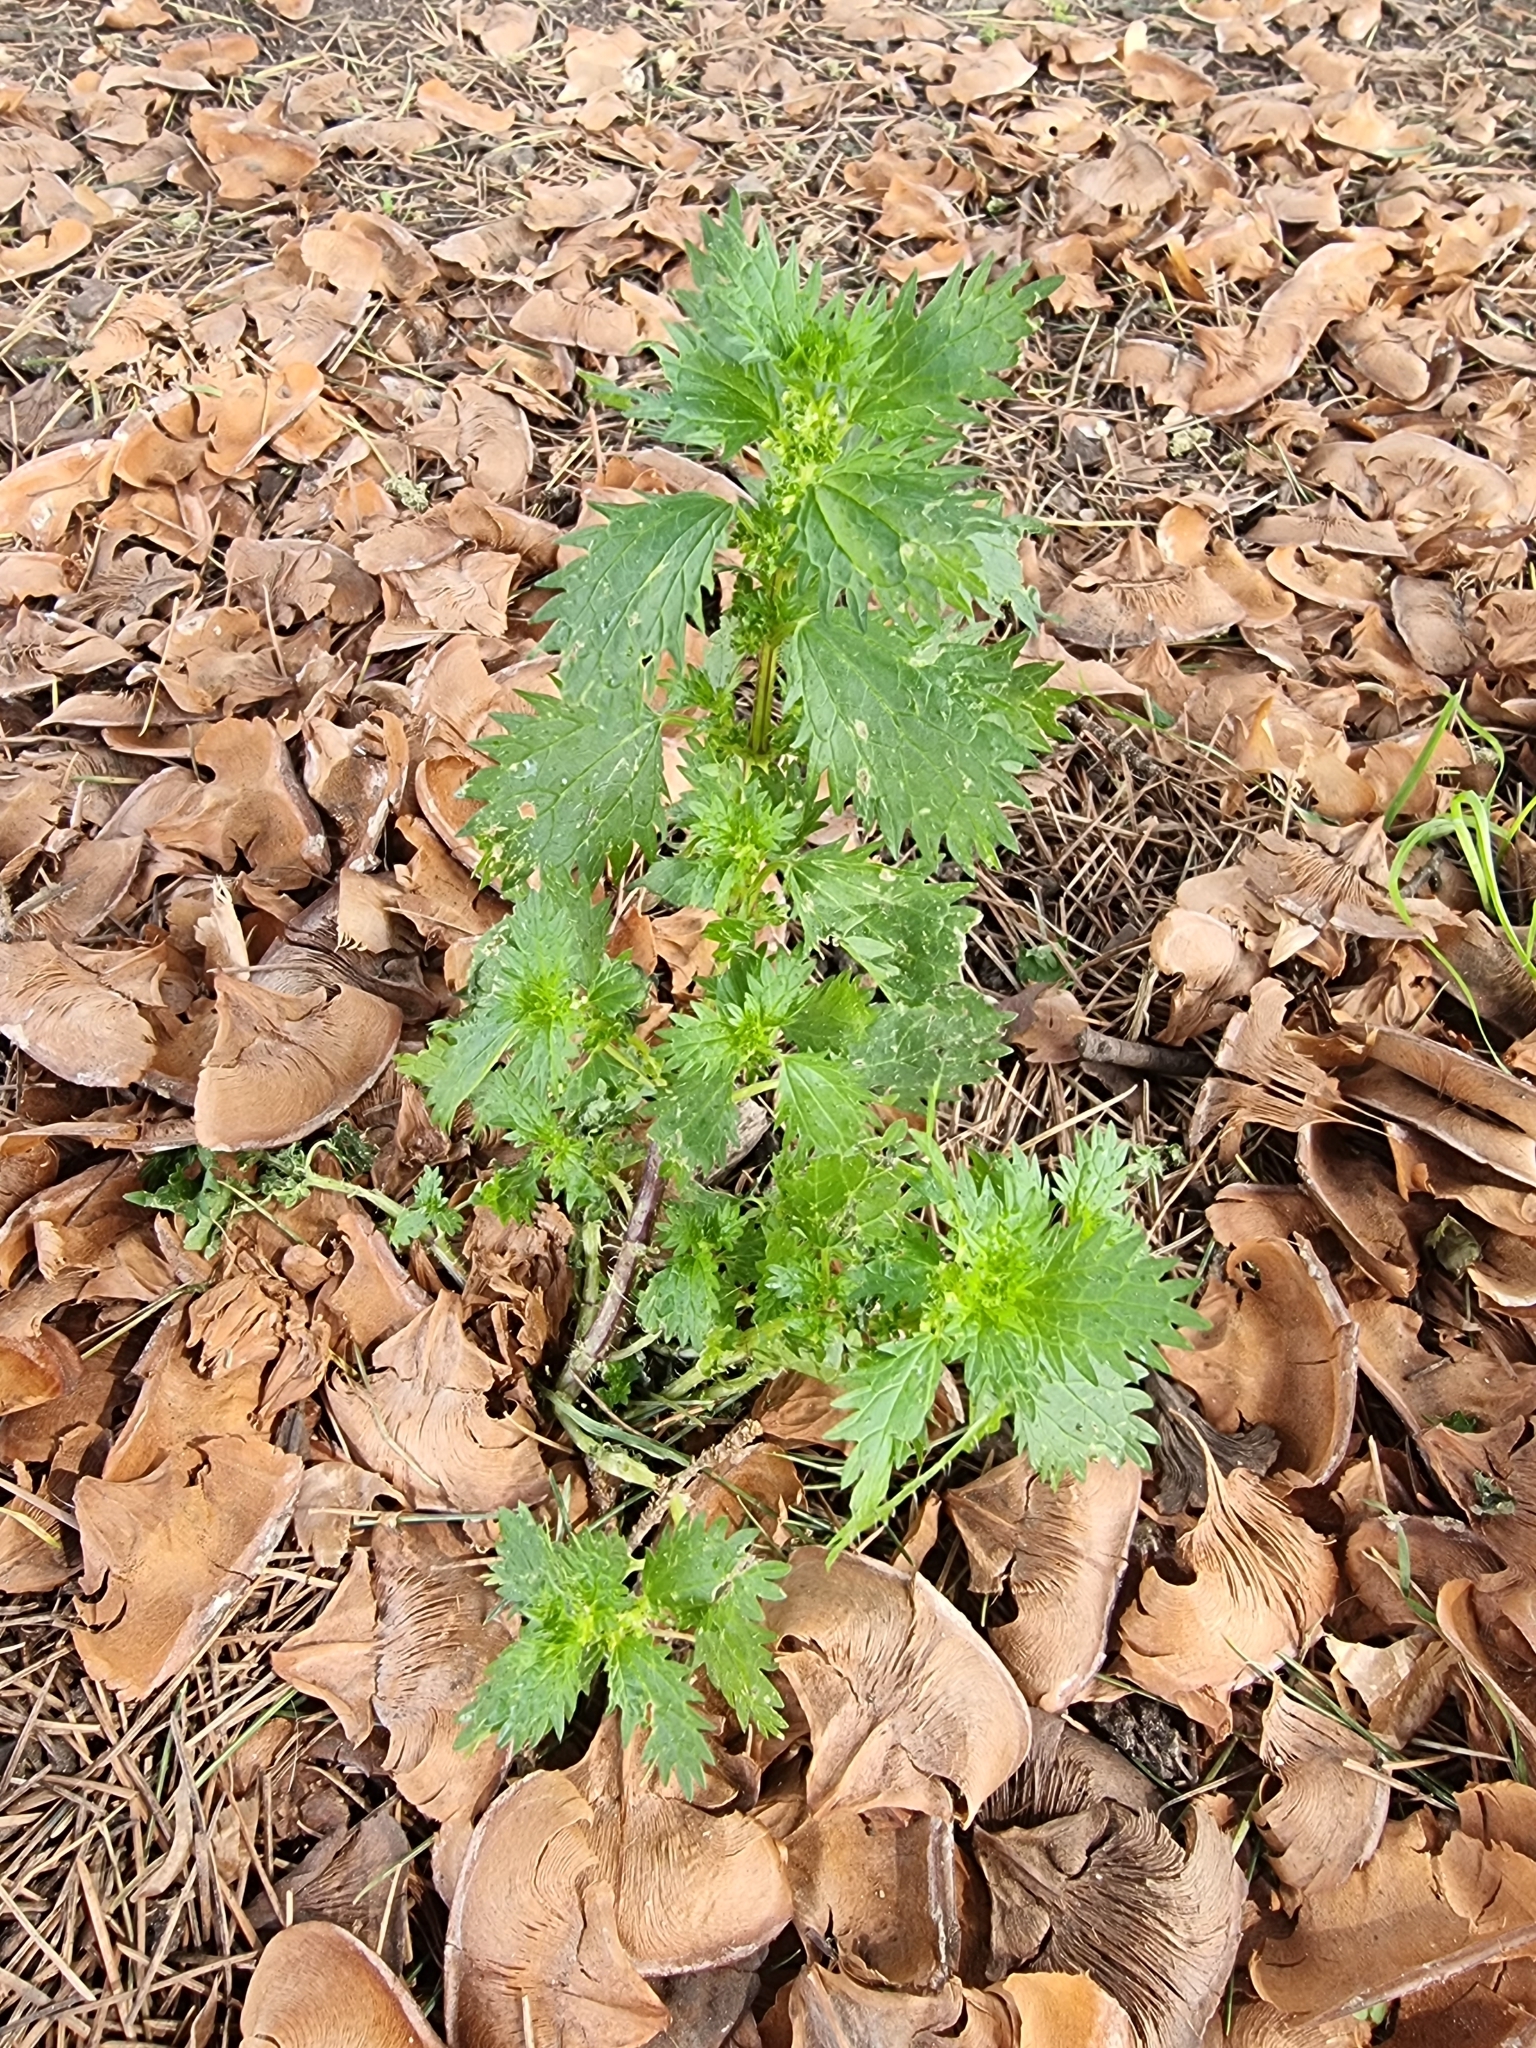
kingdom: Plantae
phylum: Tracheophyta
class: Magnoliopsida
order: Rosales
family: Urticaceae
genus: Urtica
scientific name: Urtica urens
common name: Dwarf nettle
